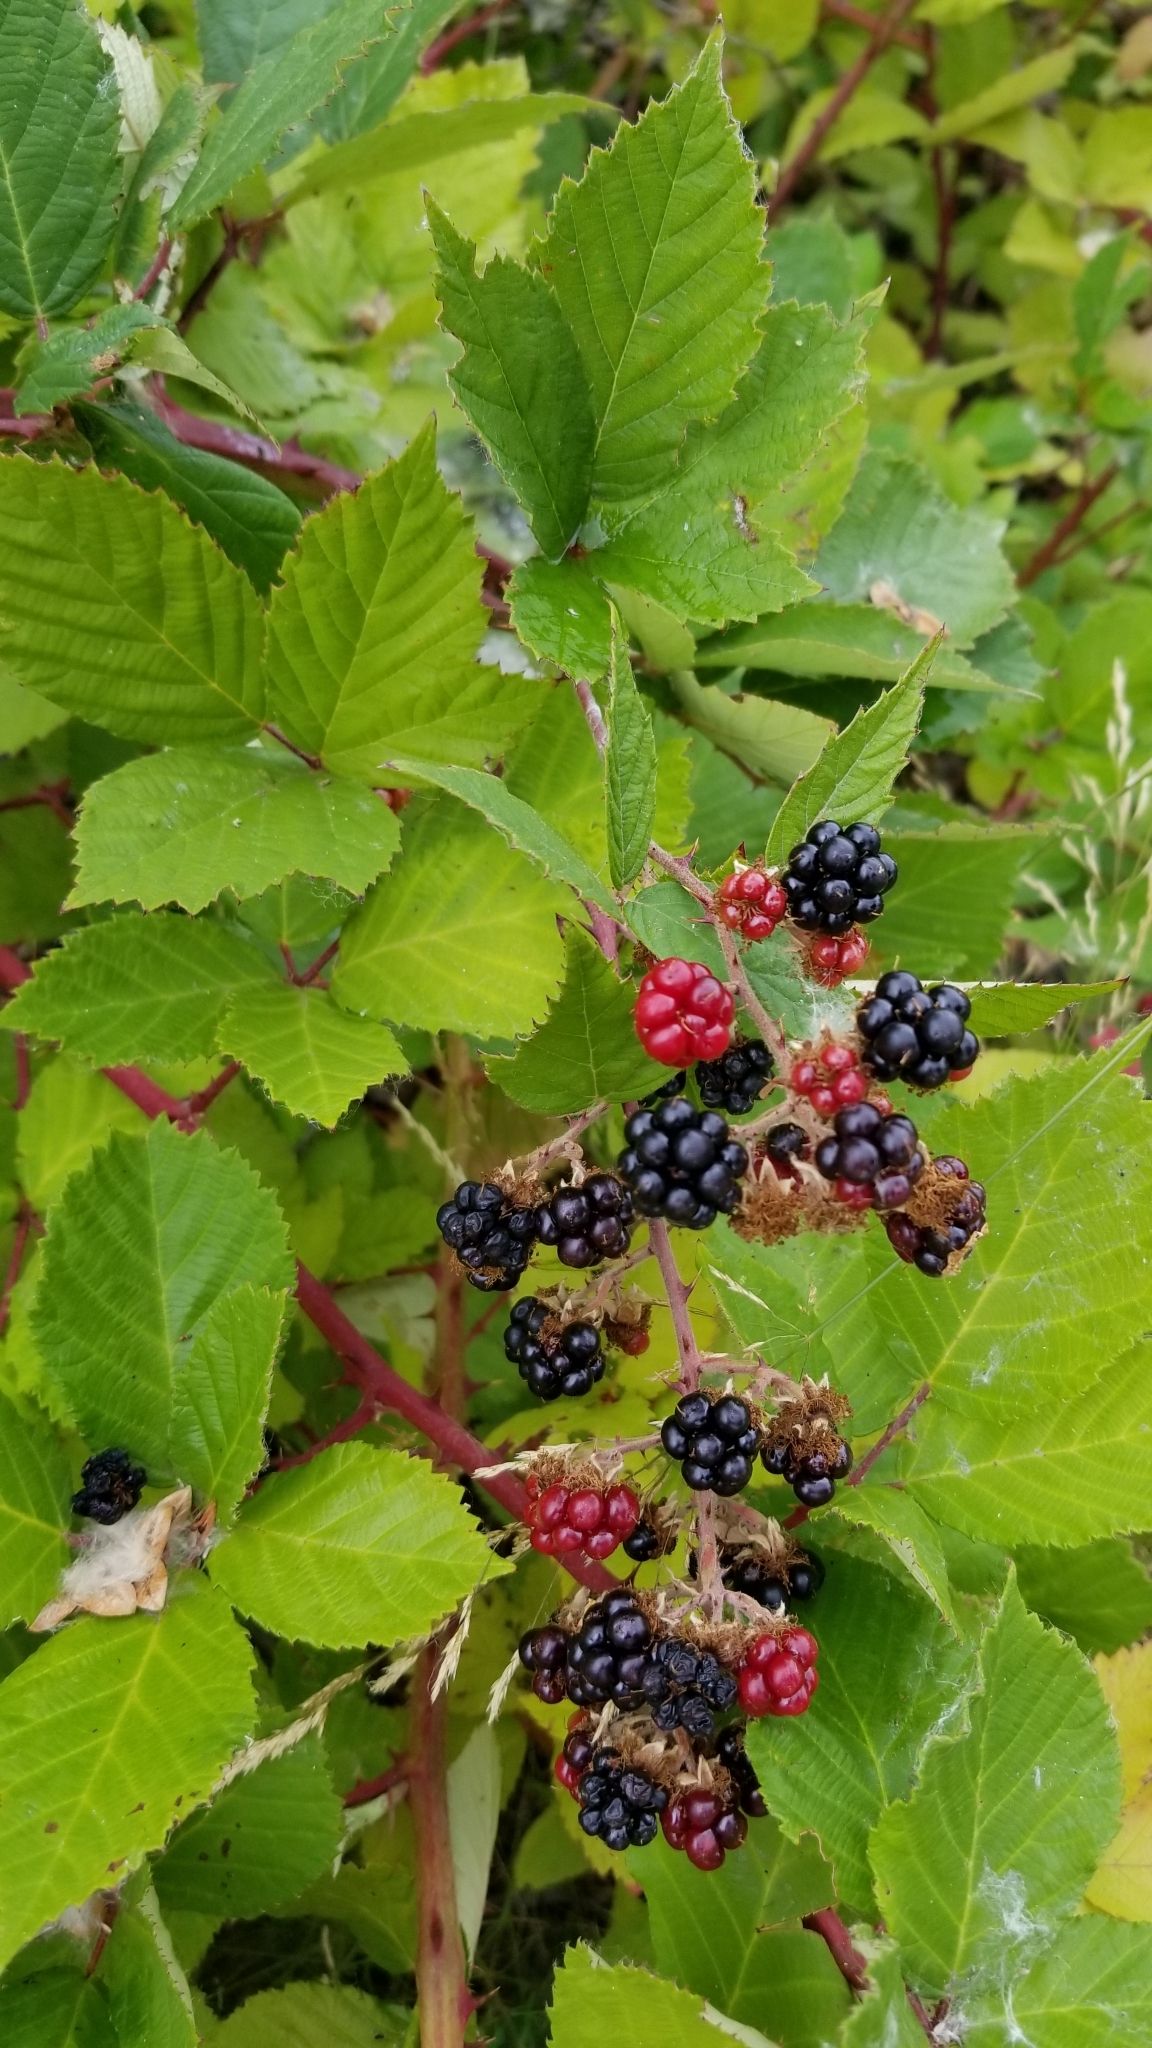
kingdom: Plantae
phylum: Tracheophyta
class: Magnoliopsida
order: Rosales
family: Rosaceae
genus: Rubus
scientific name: Rubus bifrons
